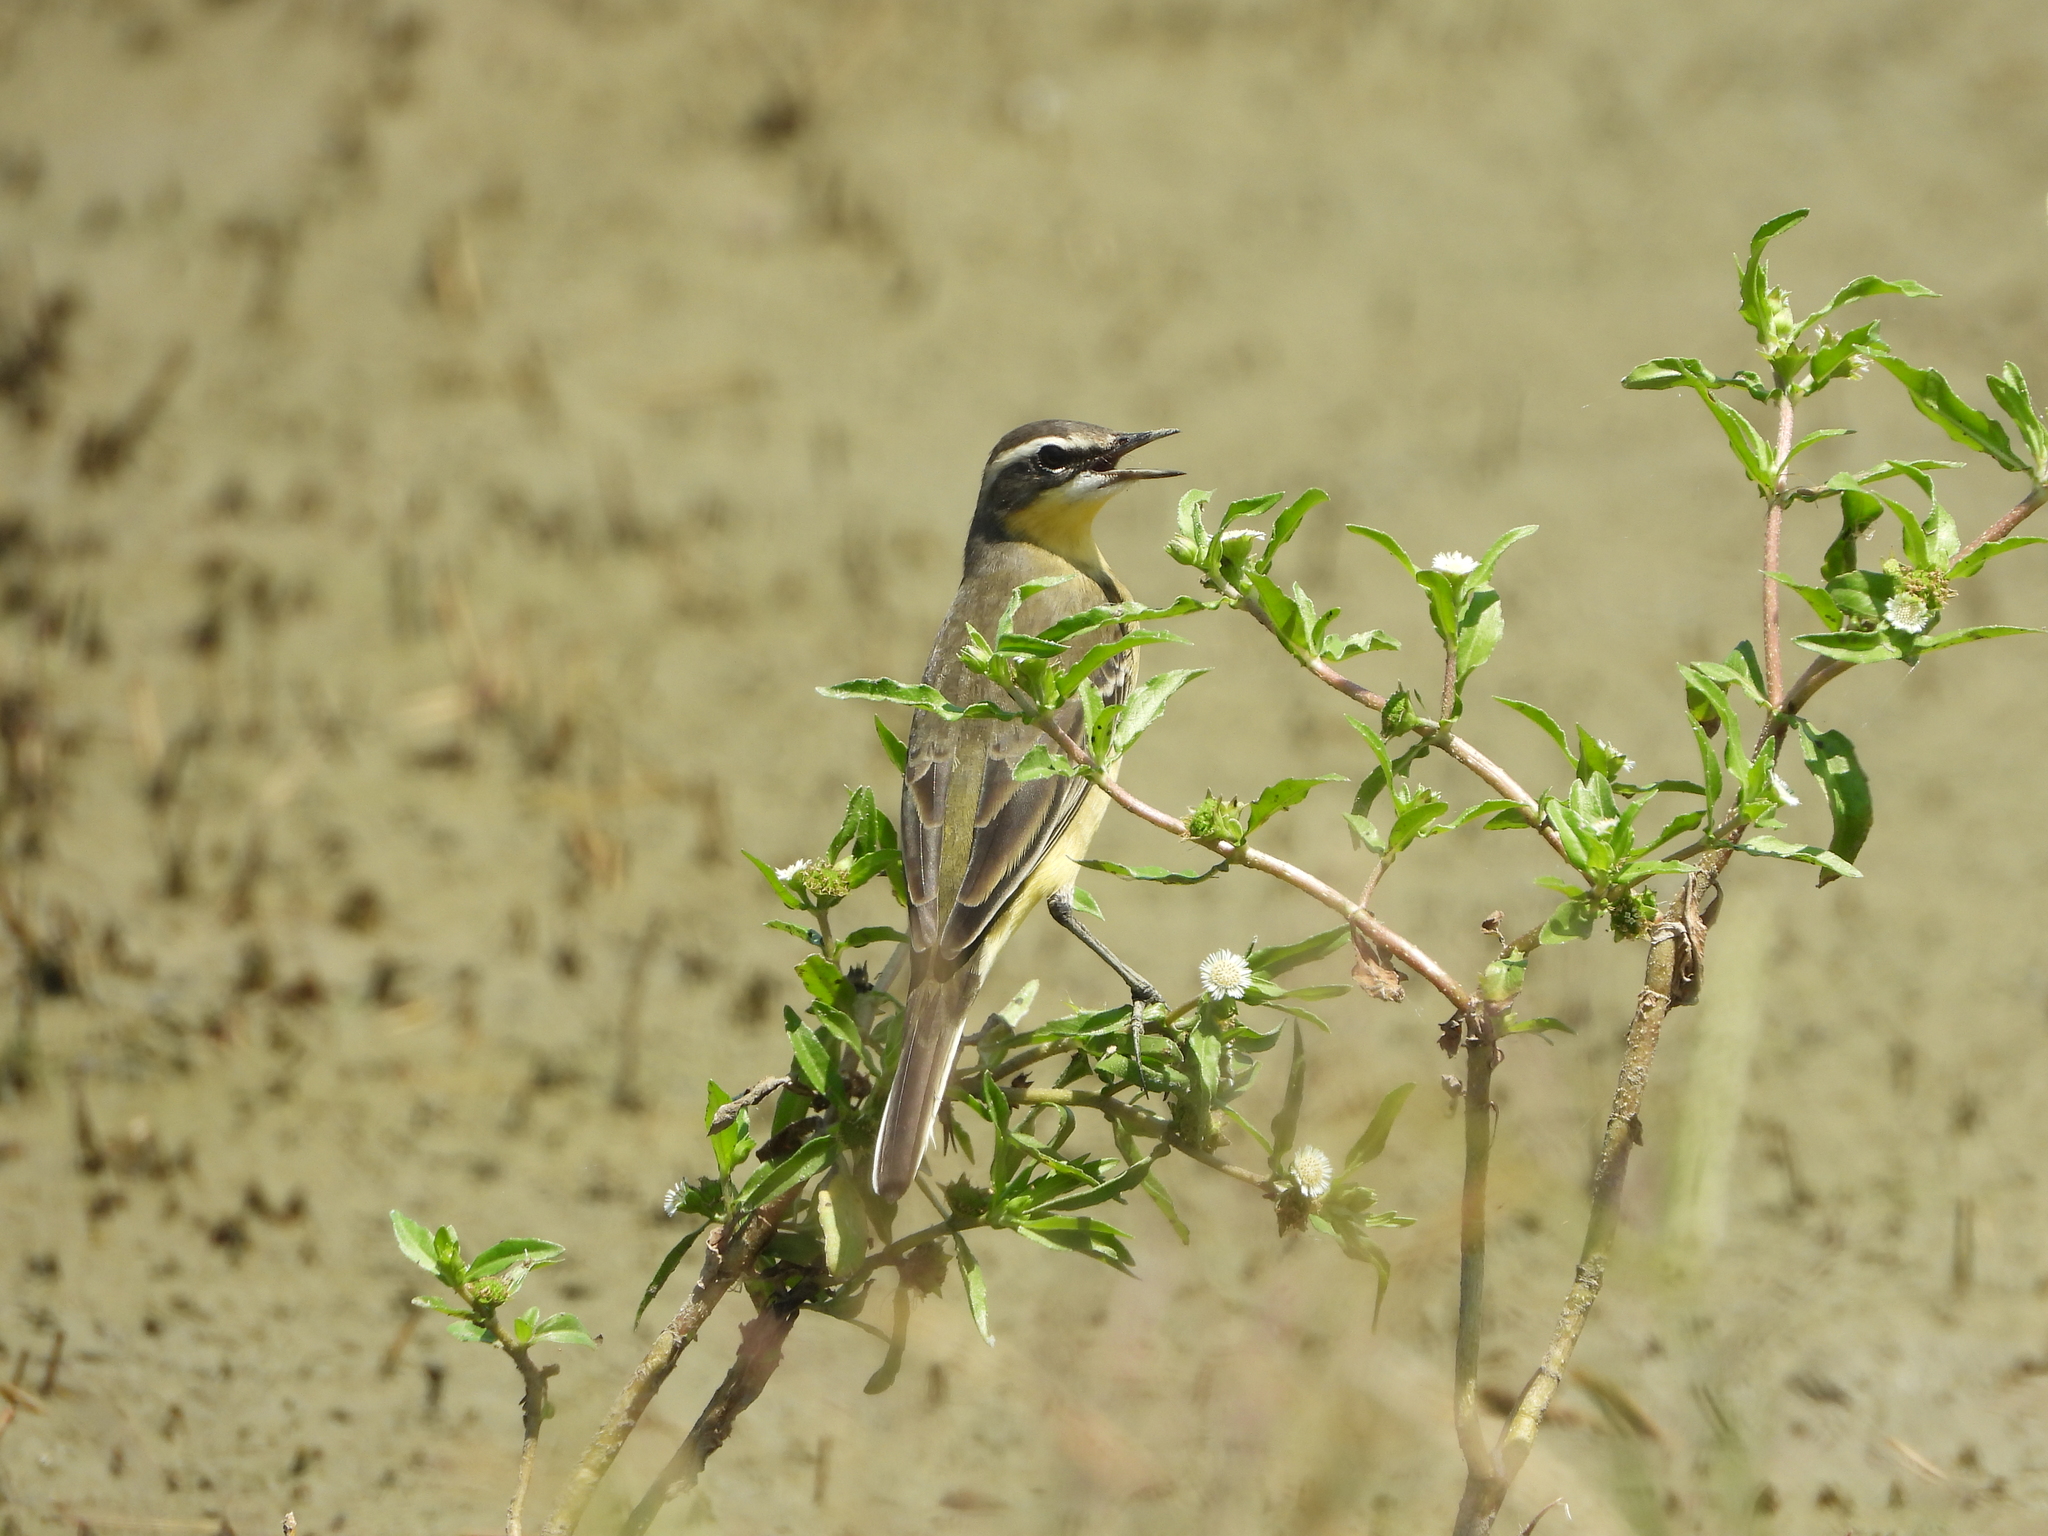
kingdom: Animalia
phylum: Chordata
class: Aves
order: Passeriformes
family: Motacillidae
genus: Motacilla
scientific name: Motacilla tschutschensis
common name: Eastern yellow wagtail
